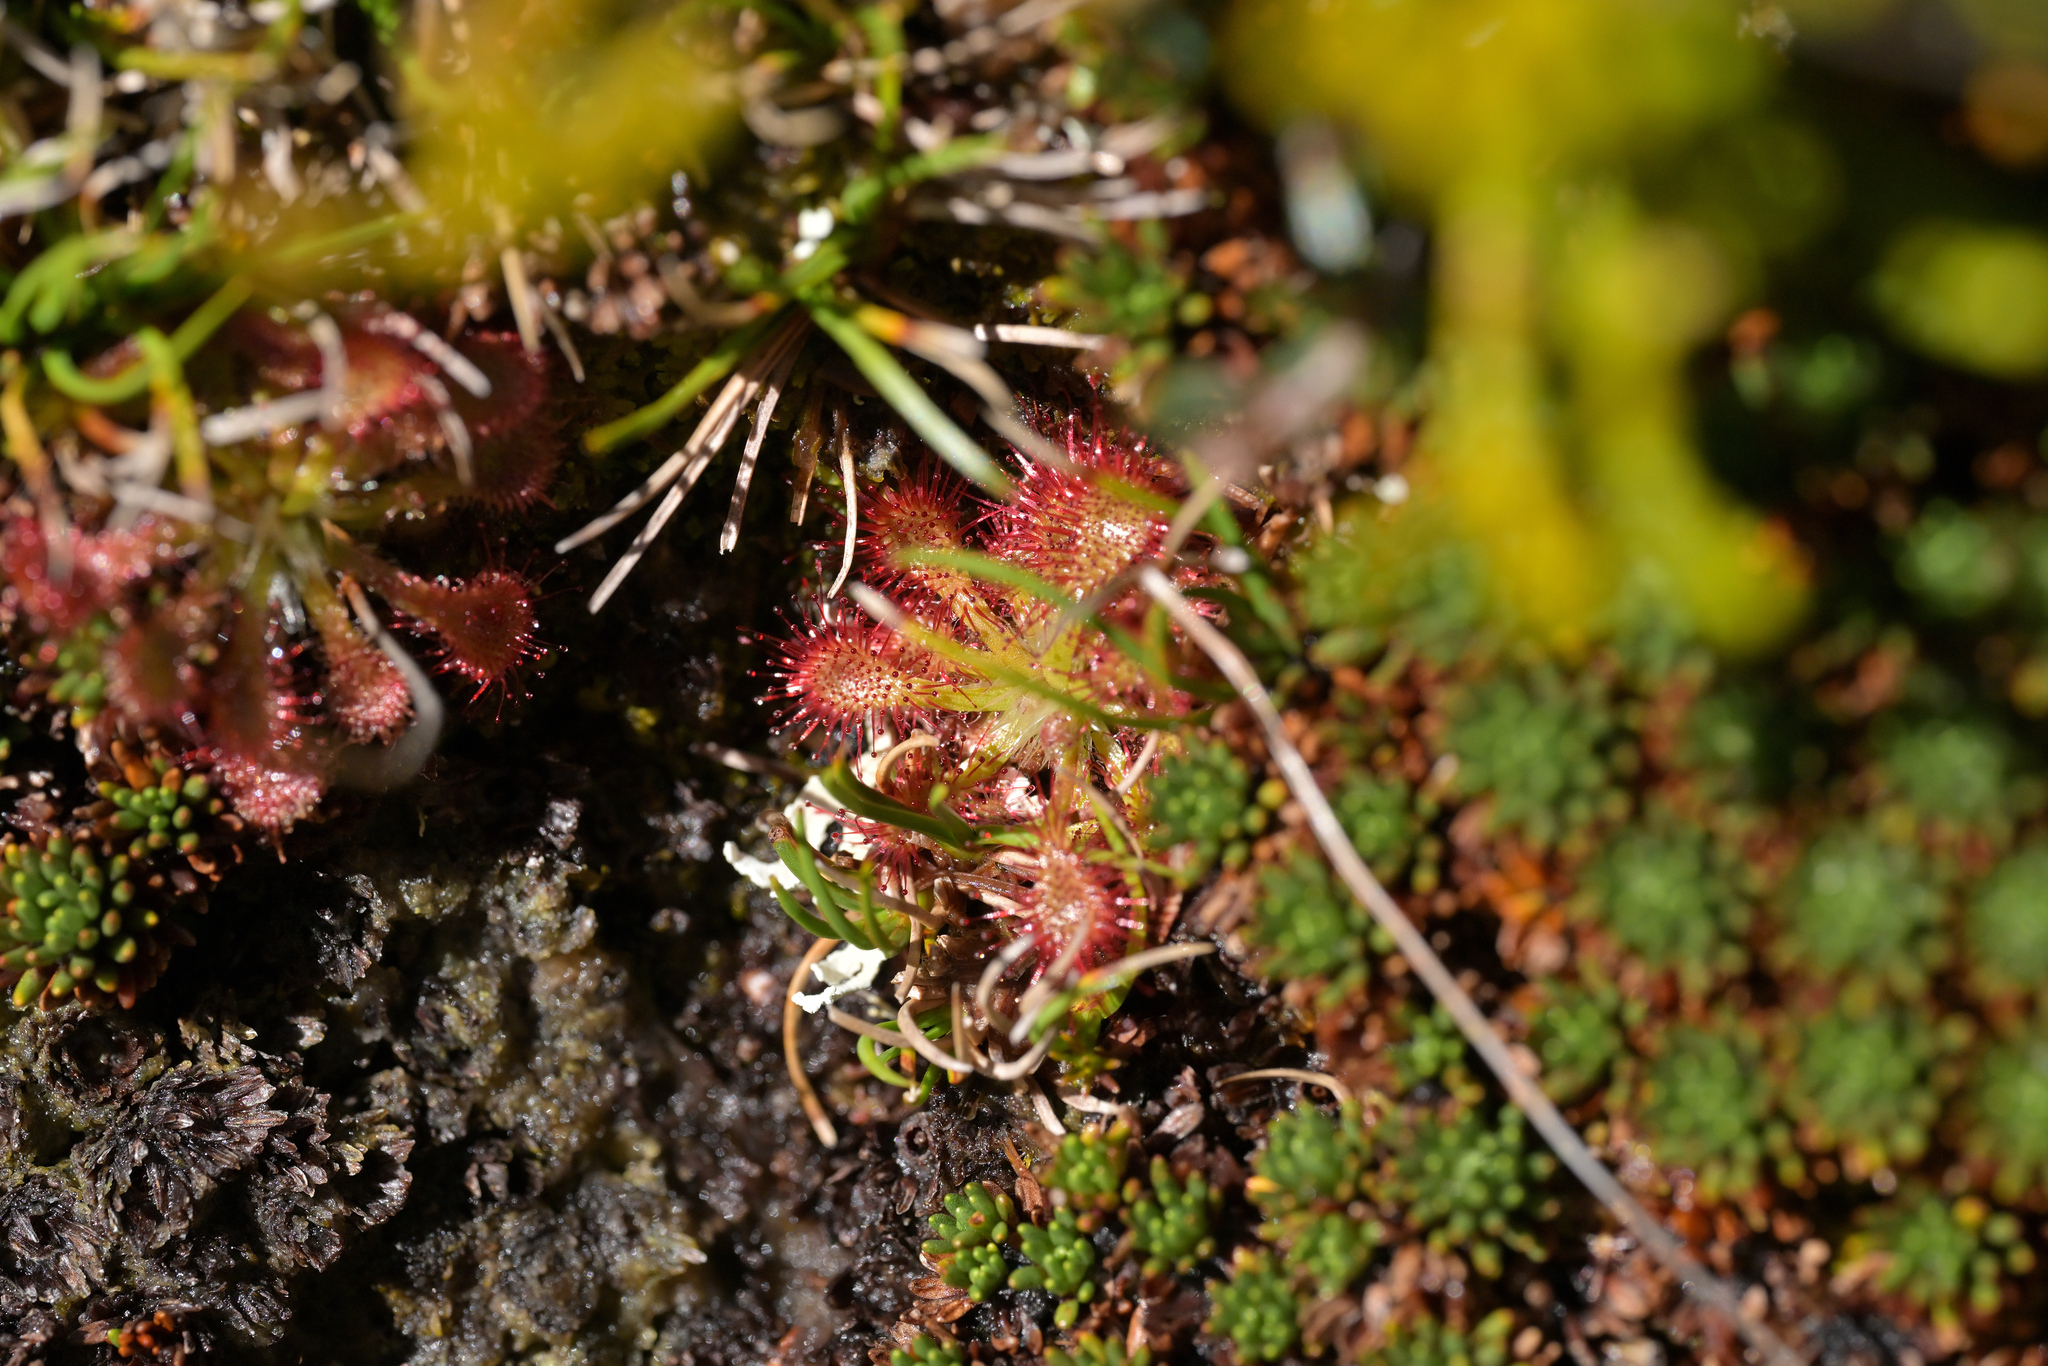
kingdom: Plantae
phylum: Tracheophyta
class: Magnoliopsida
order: Caryophyllales
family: Droseraceae
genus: Drosera
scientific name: Drosera spatulata
